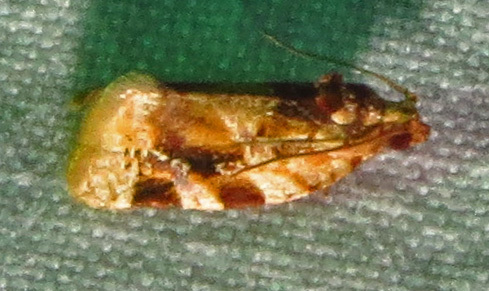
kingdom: Animalia
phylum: Arthropoda
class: Insecta
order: Lepidoptera
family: Tortricidae
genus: Argyrotaenia
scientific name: Argyrotaenia velutinana
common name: Red-banded leafroller moth
